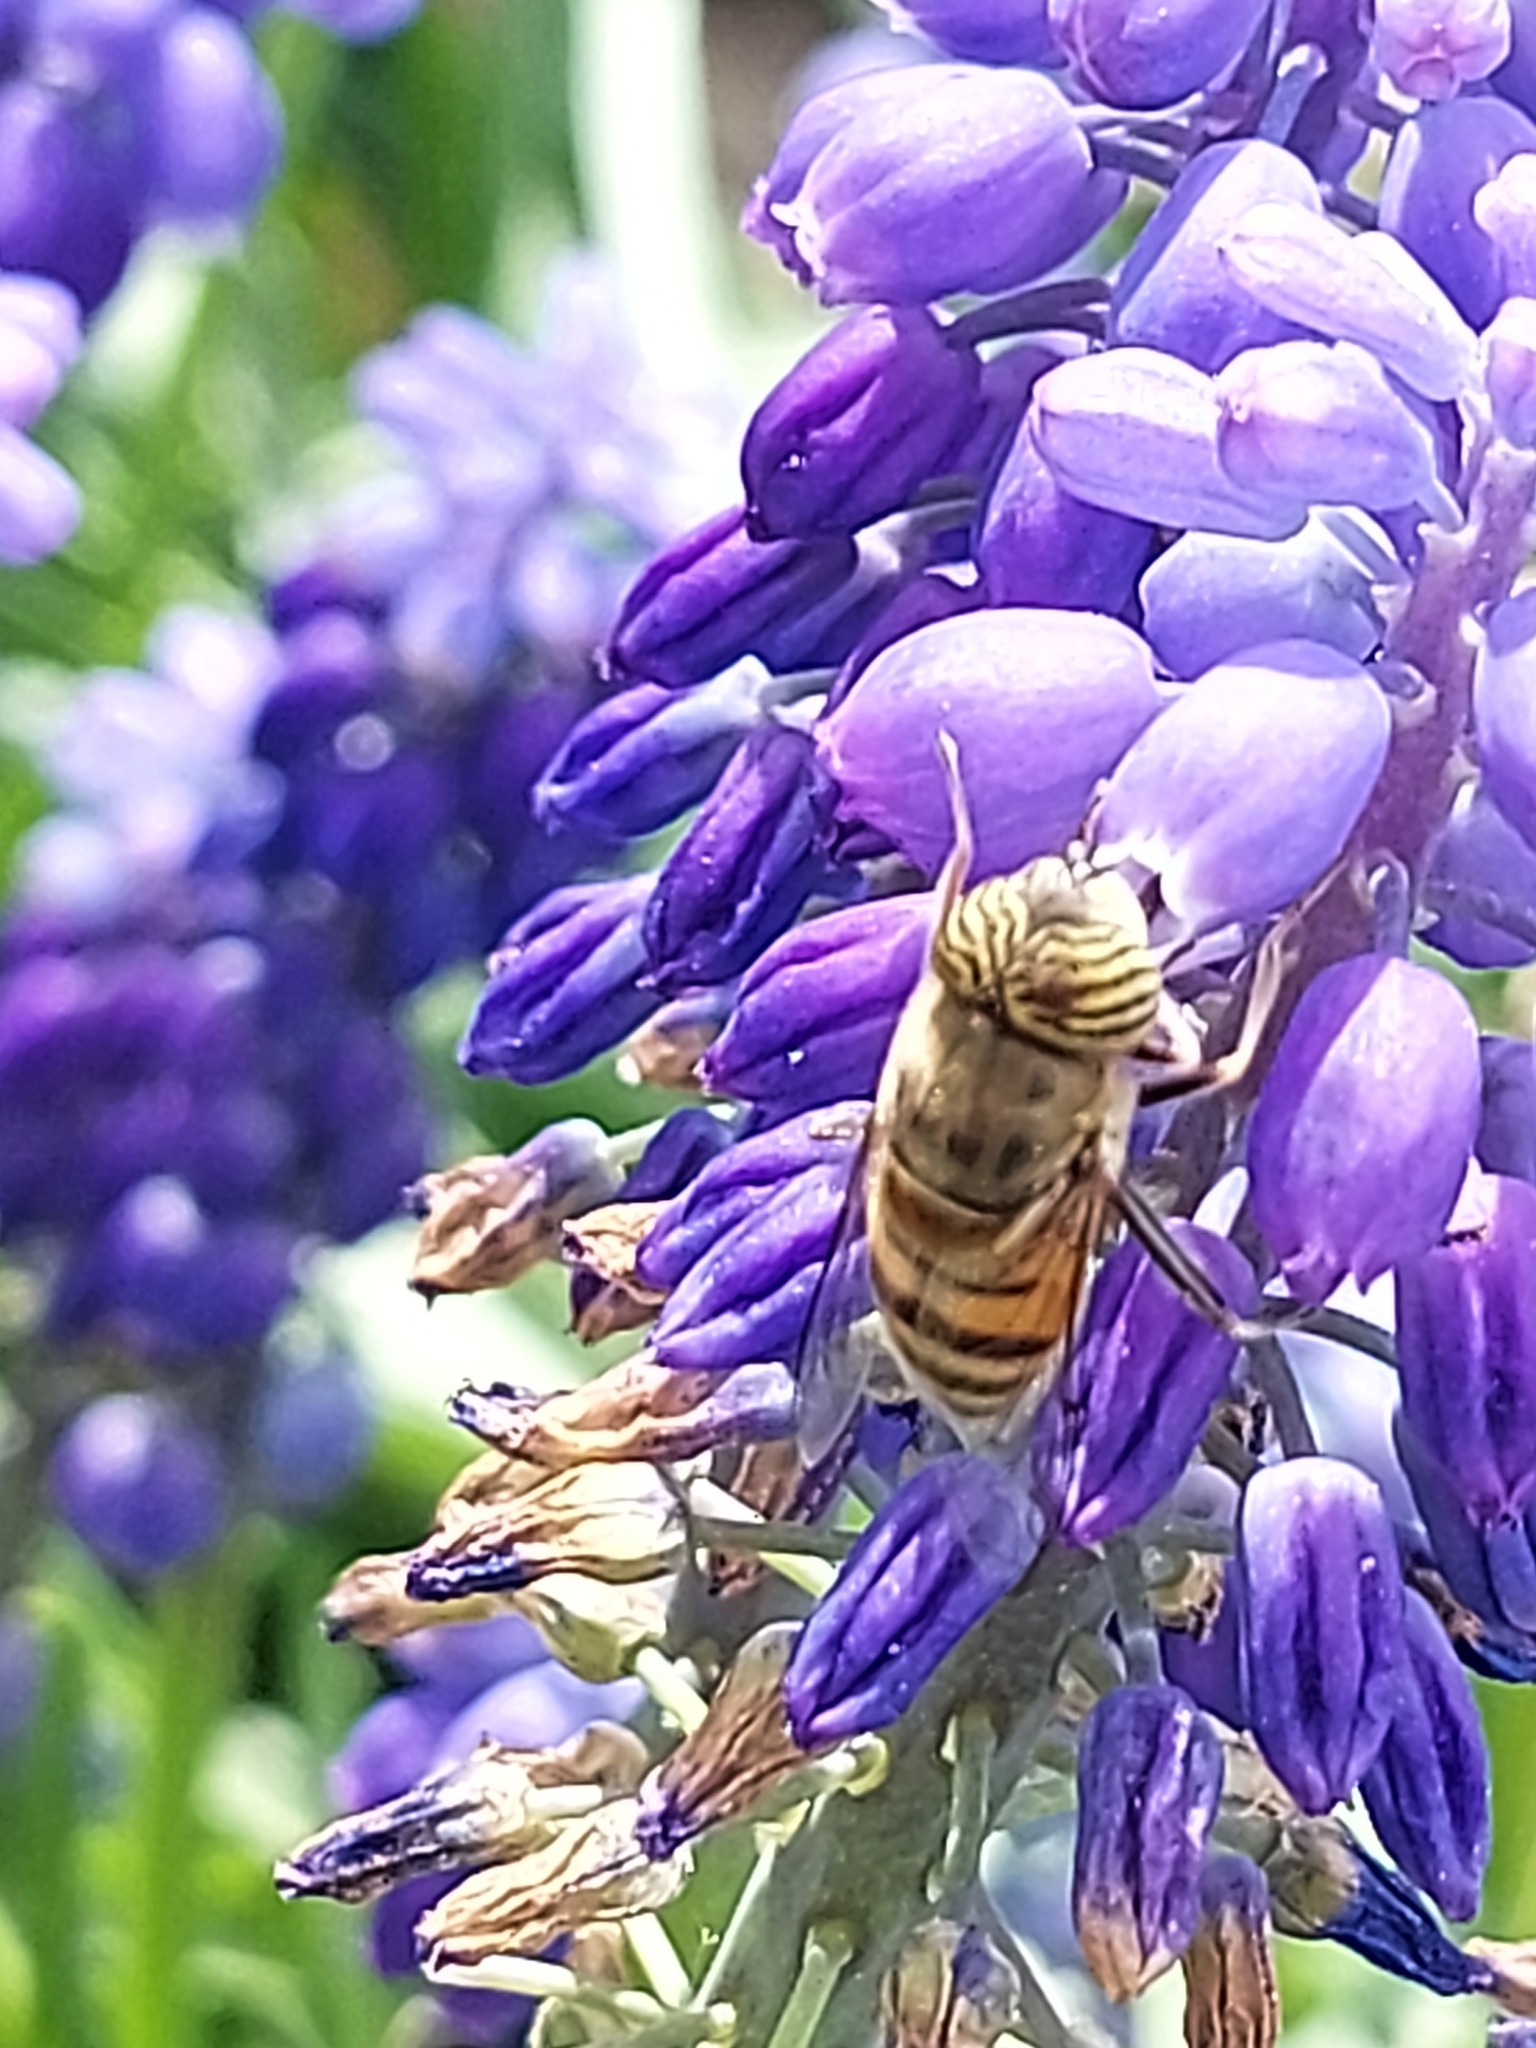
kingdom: Animalia
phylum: Arthropoda
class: Insecta
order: Diptera
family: Syrphidae
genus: Eristalinus
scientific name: Eristalinus taeniops
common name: Syrphid fly
